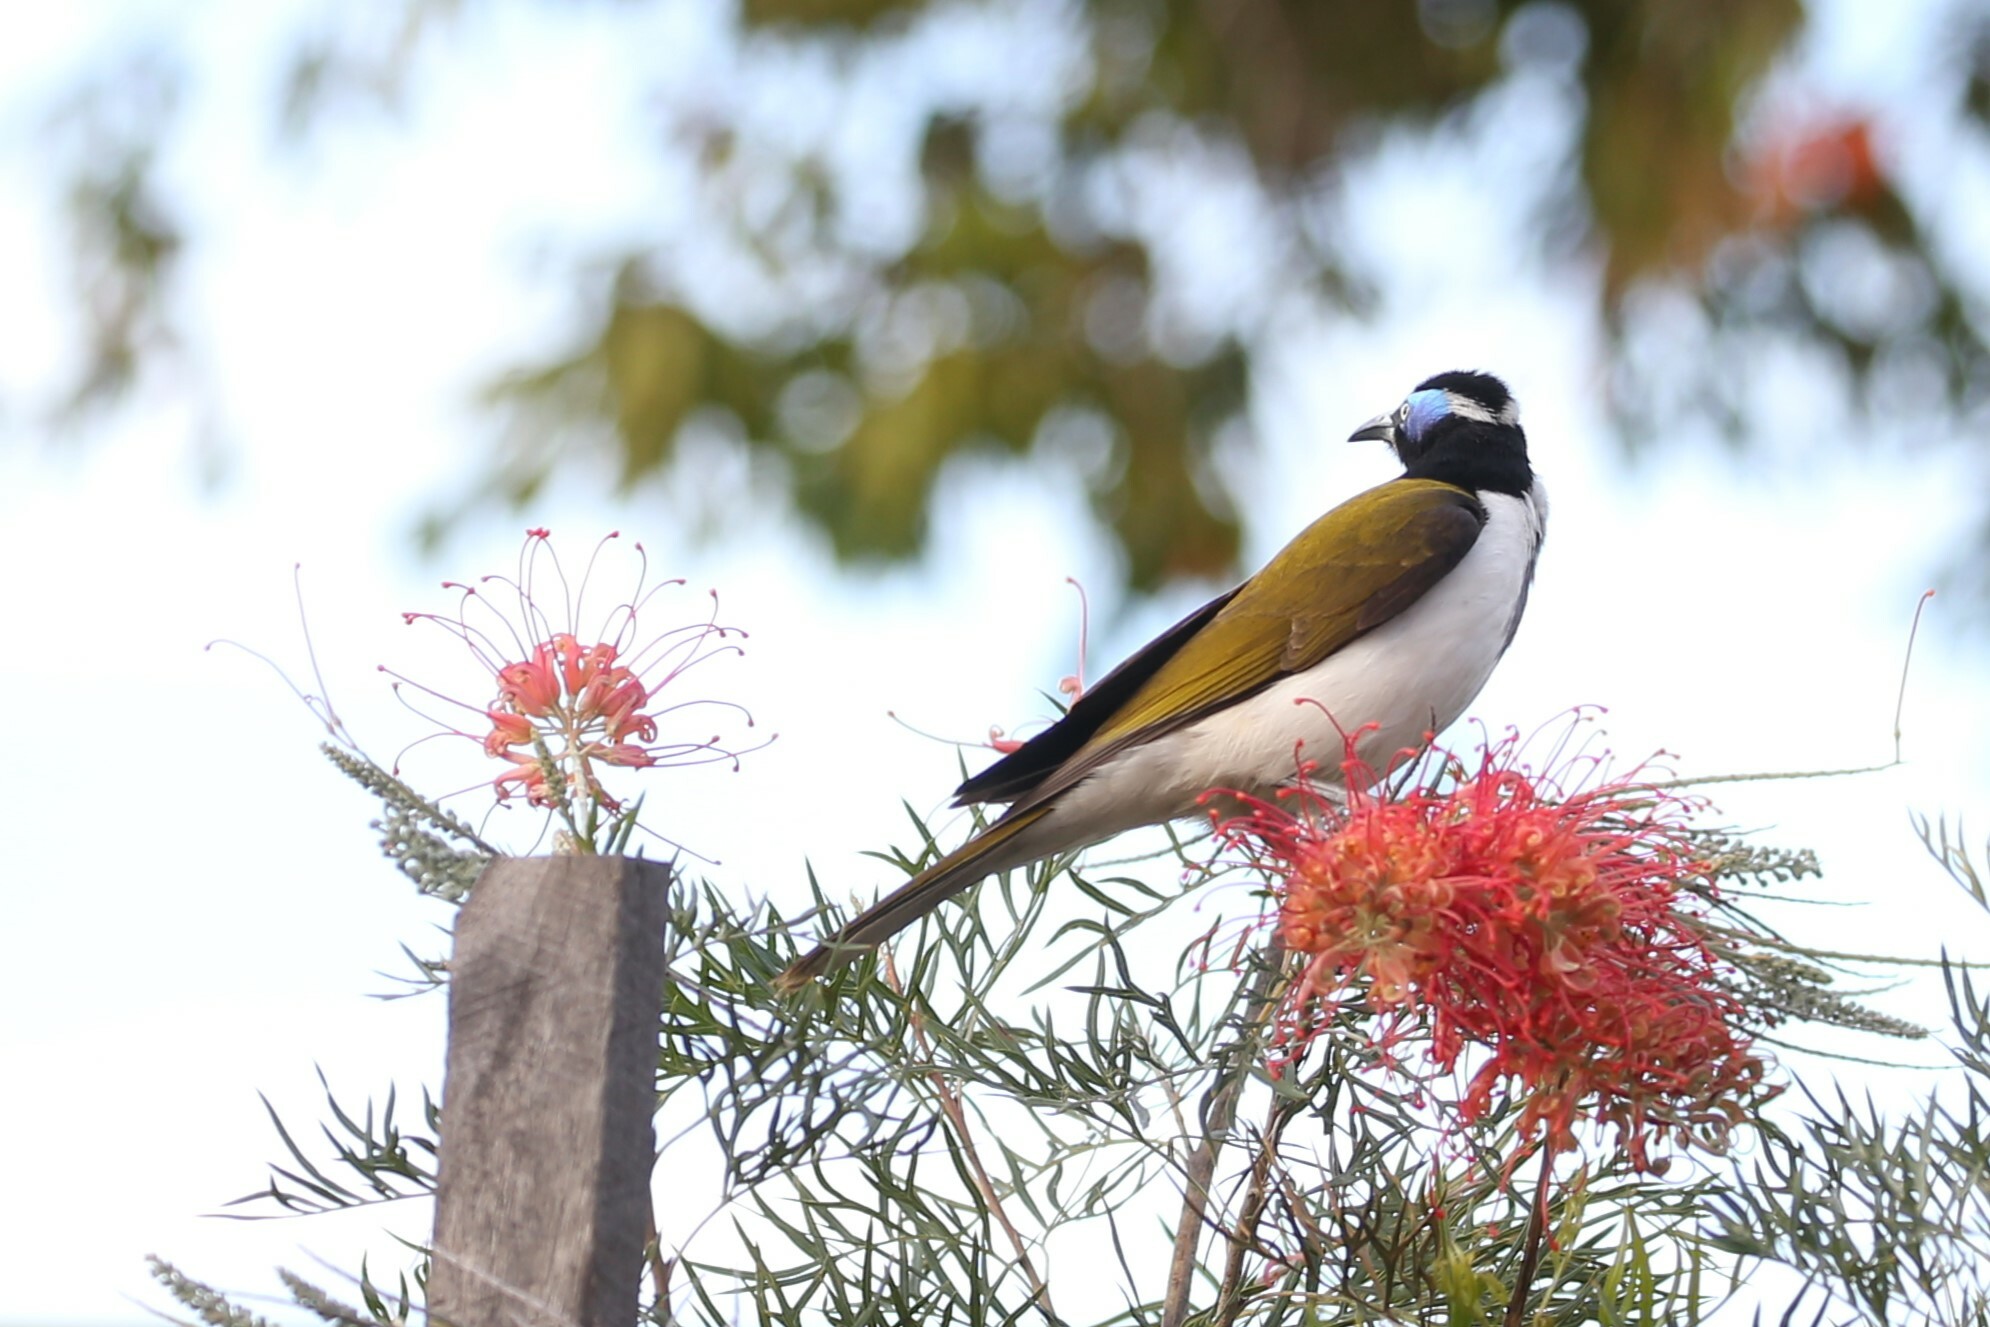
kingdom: Animalia
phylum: Chordata
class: Aves
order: Passeriformes
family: Meliphagidae
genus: Entomyzon
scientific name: Entomyzon cyanotis
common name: Blue-faced honeyeater
